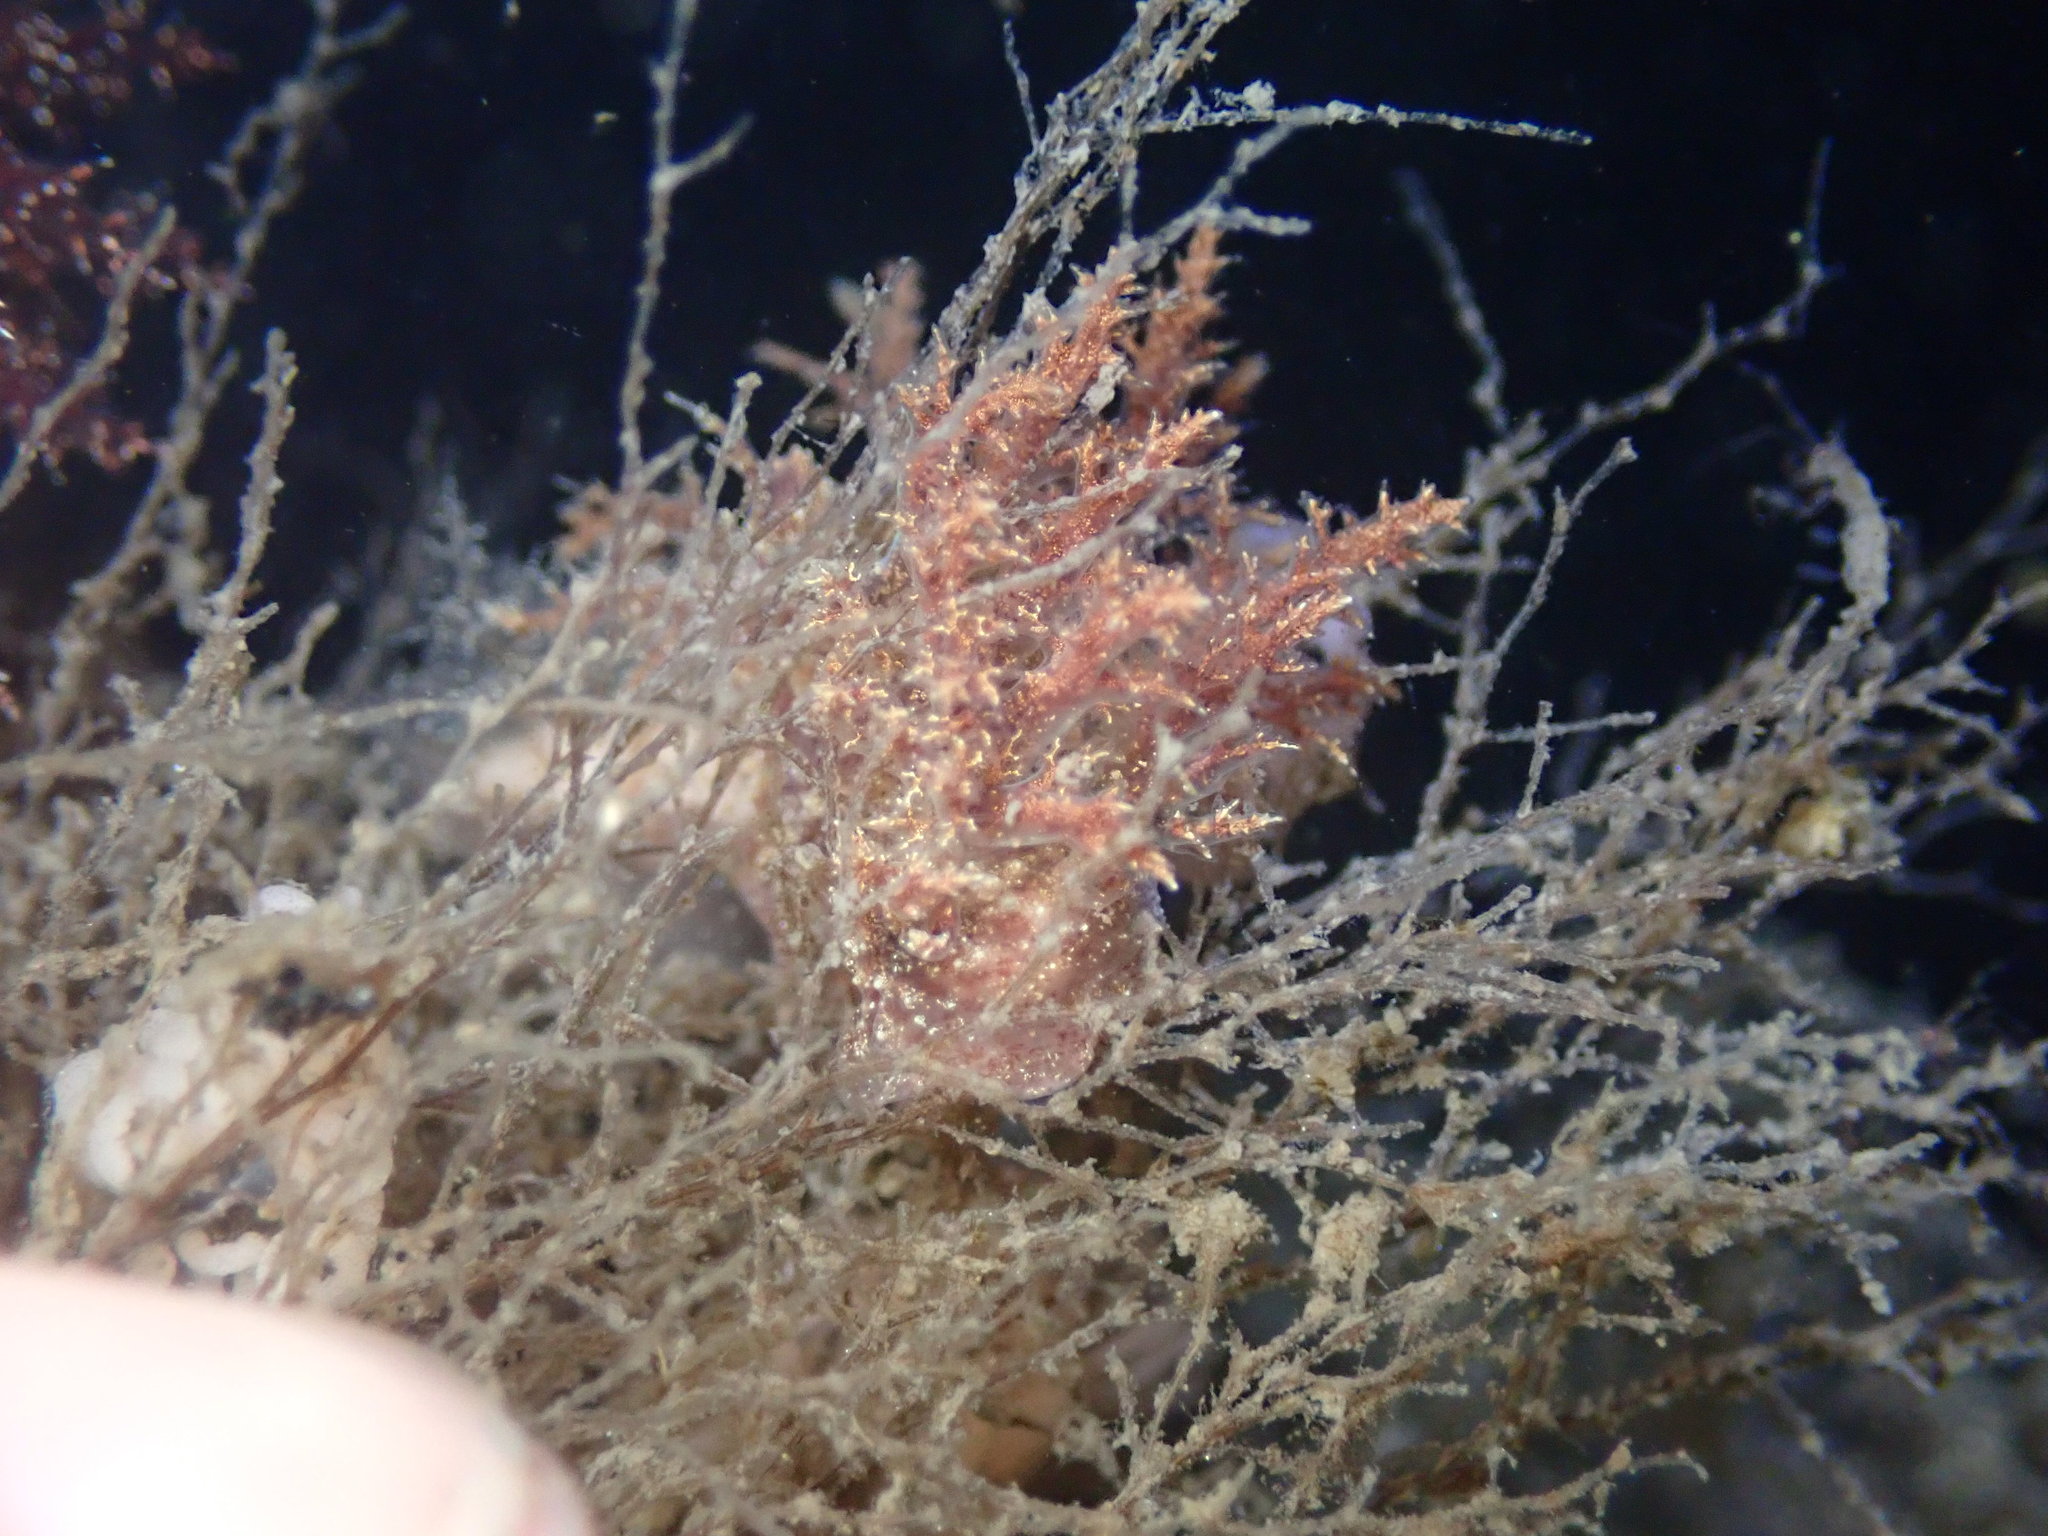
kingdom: Animalia
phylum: Mollusca
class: Gastropoda
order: Nudibranchia
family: Dendronotidae
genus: Dendronotus
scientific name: Dendronotus venustus
